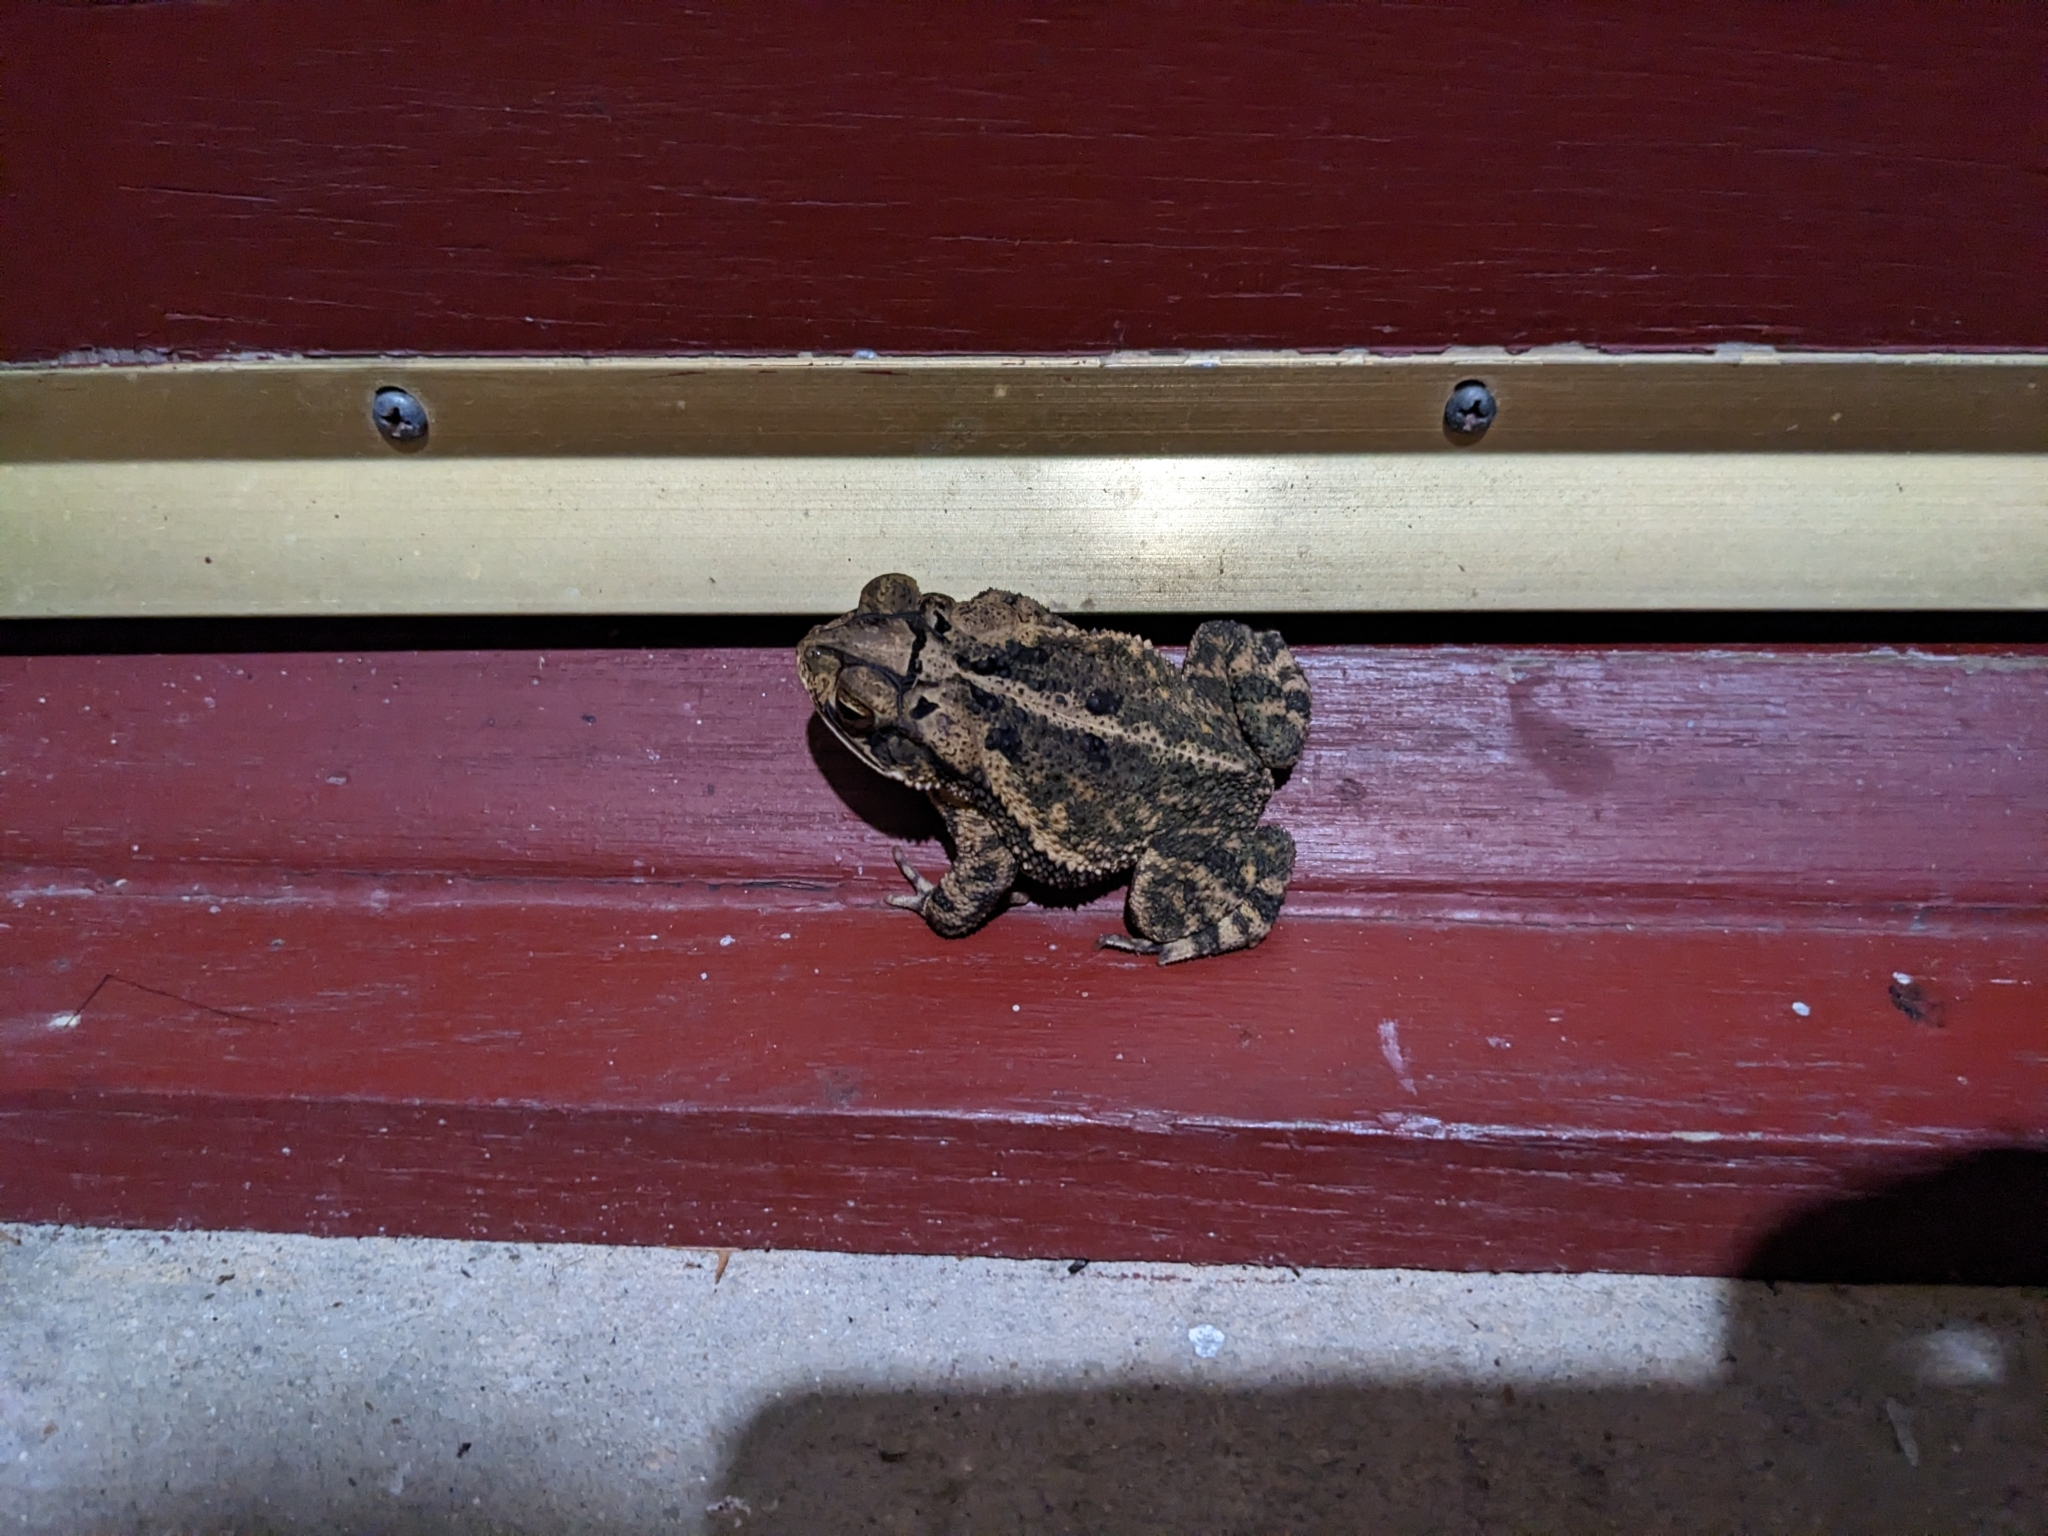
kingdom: Animalia
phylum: Chordata
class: Amphibia
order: Anura
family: Bufonidae
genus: Incilius
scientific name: Incilius nebulifer
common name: Gulf coast toad
